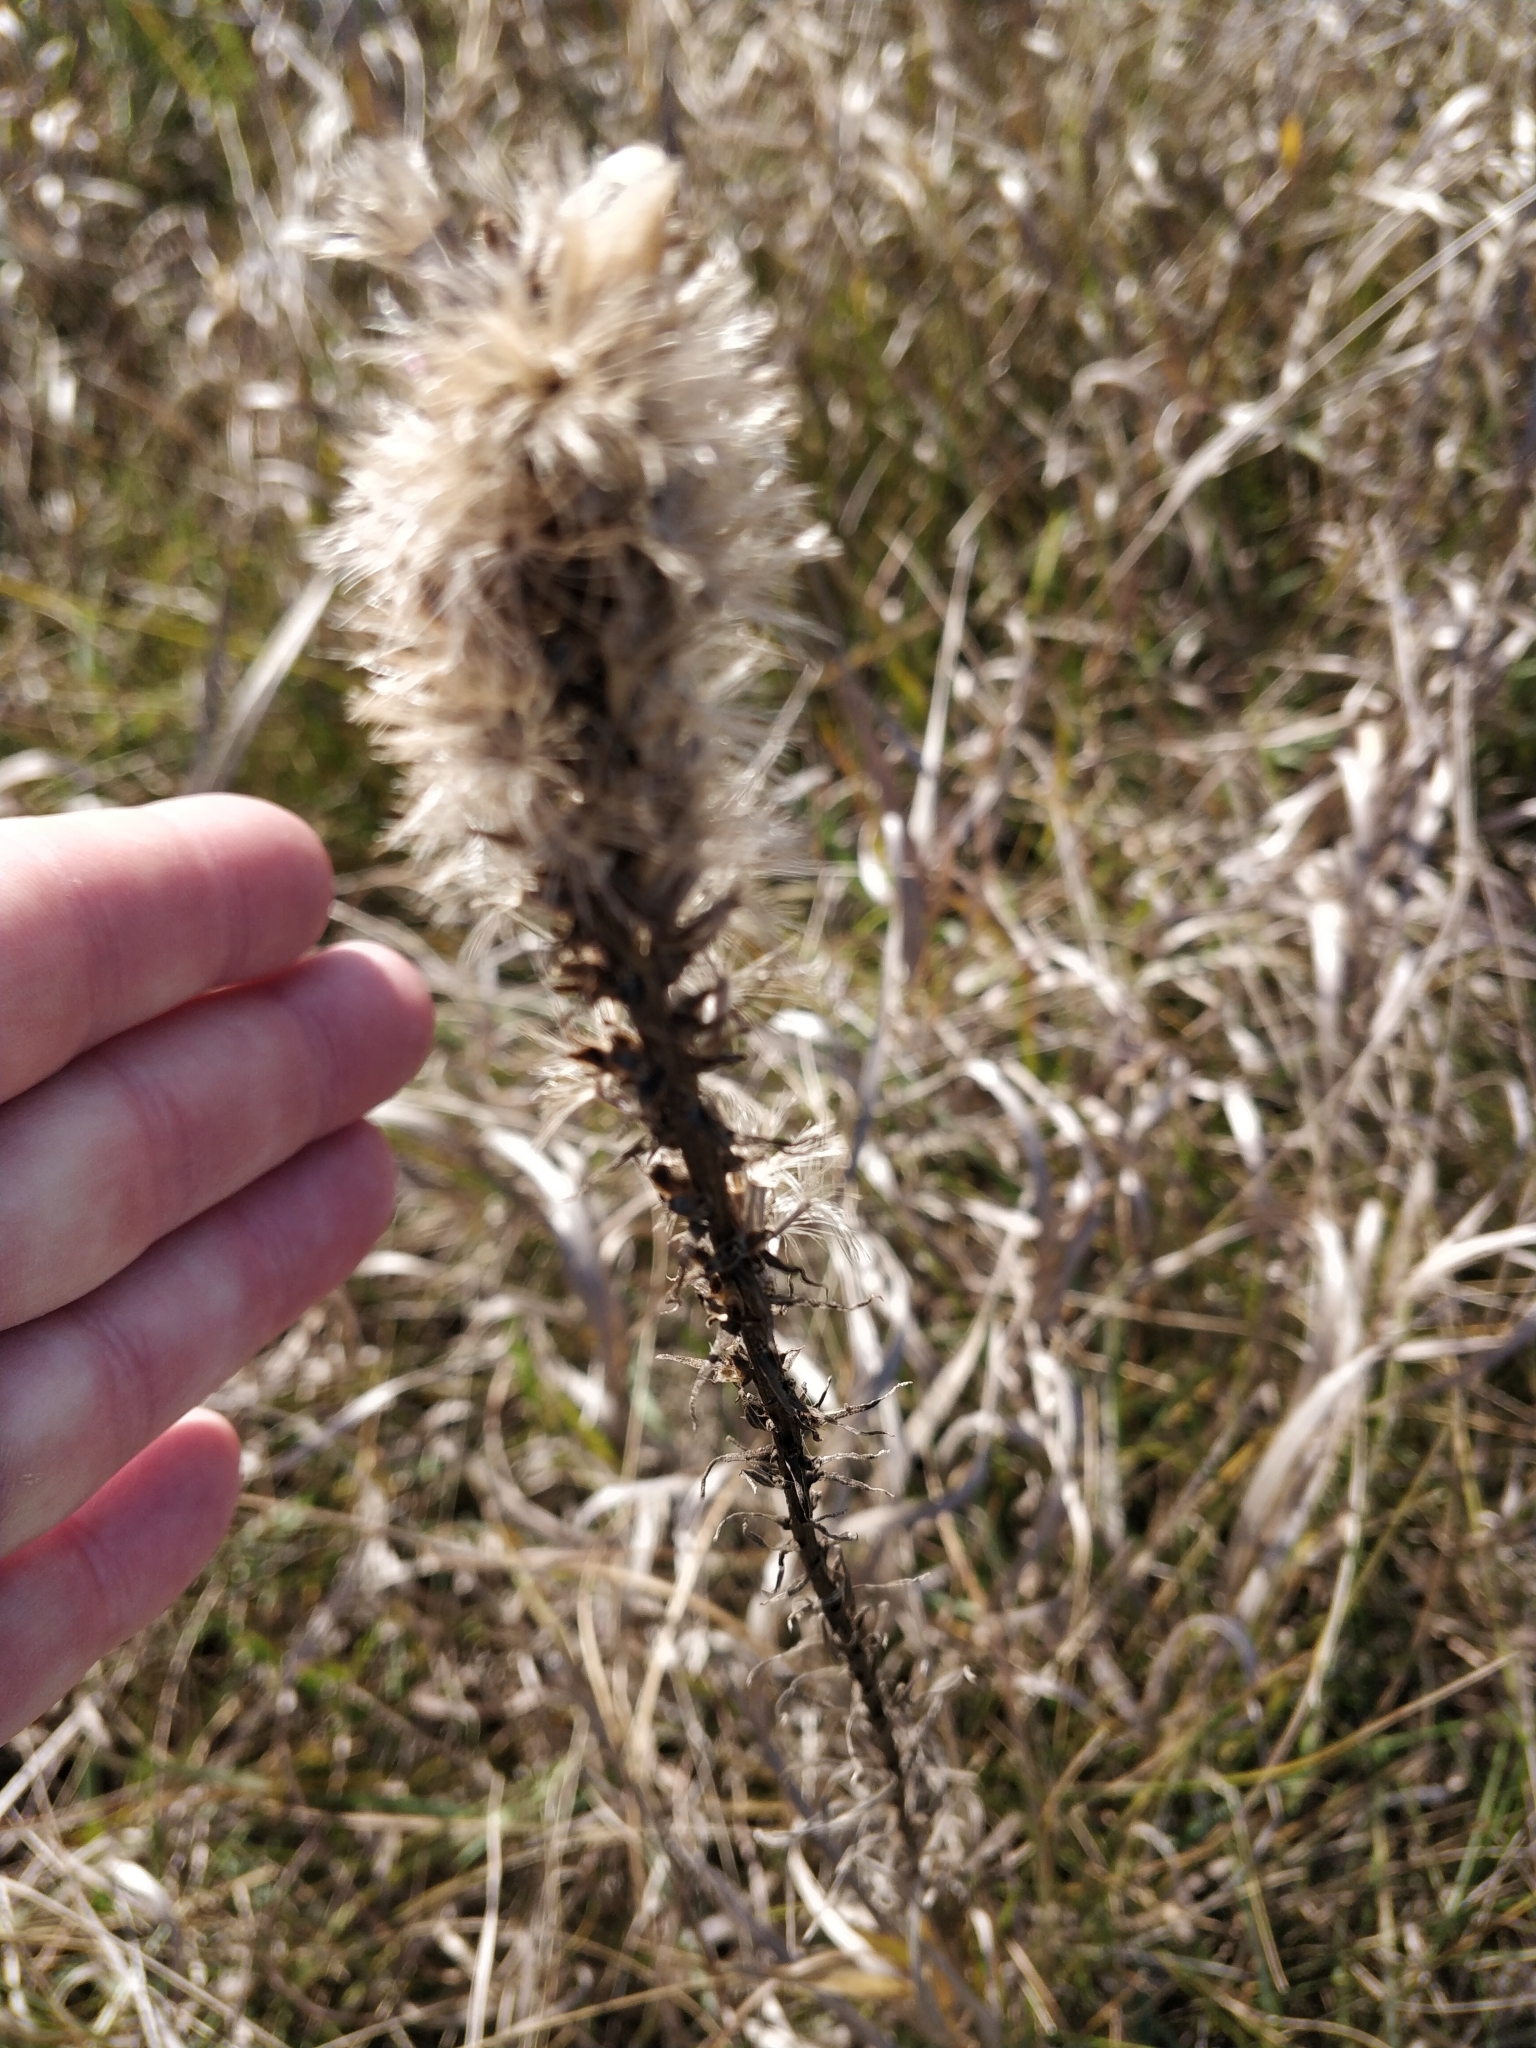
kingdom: Plantae
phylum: Tracheophyta
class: Magnoliopsida
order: Asterales
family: Asteraceae
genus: Liatris
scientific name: Liatris pycnostachya
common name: Cattail gayfeather
